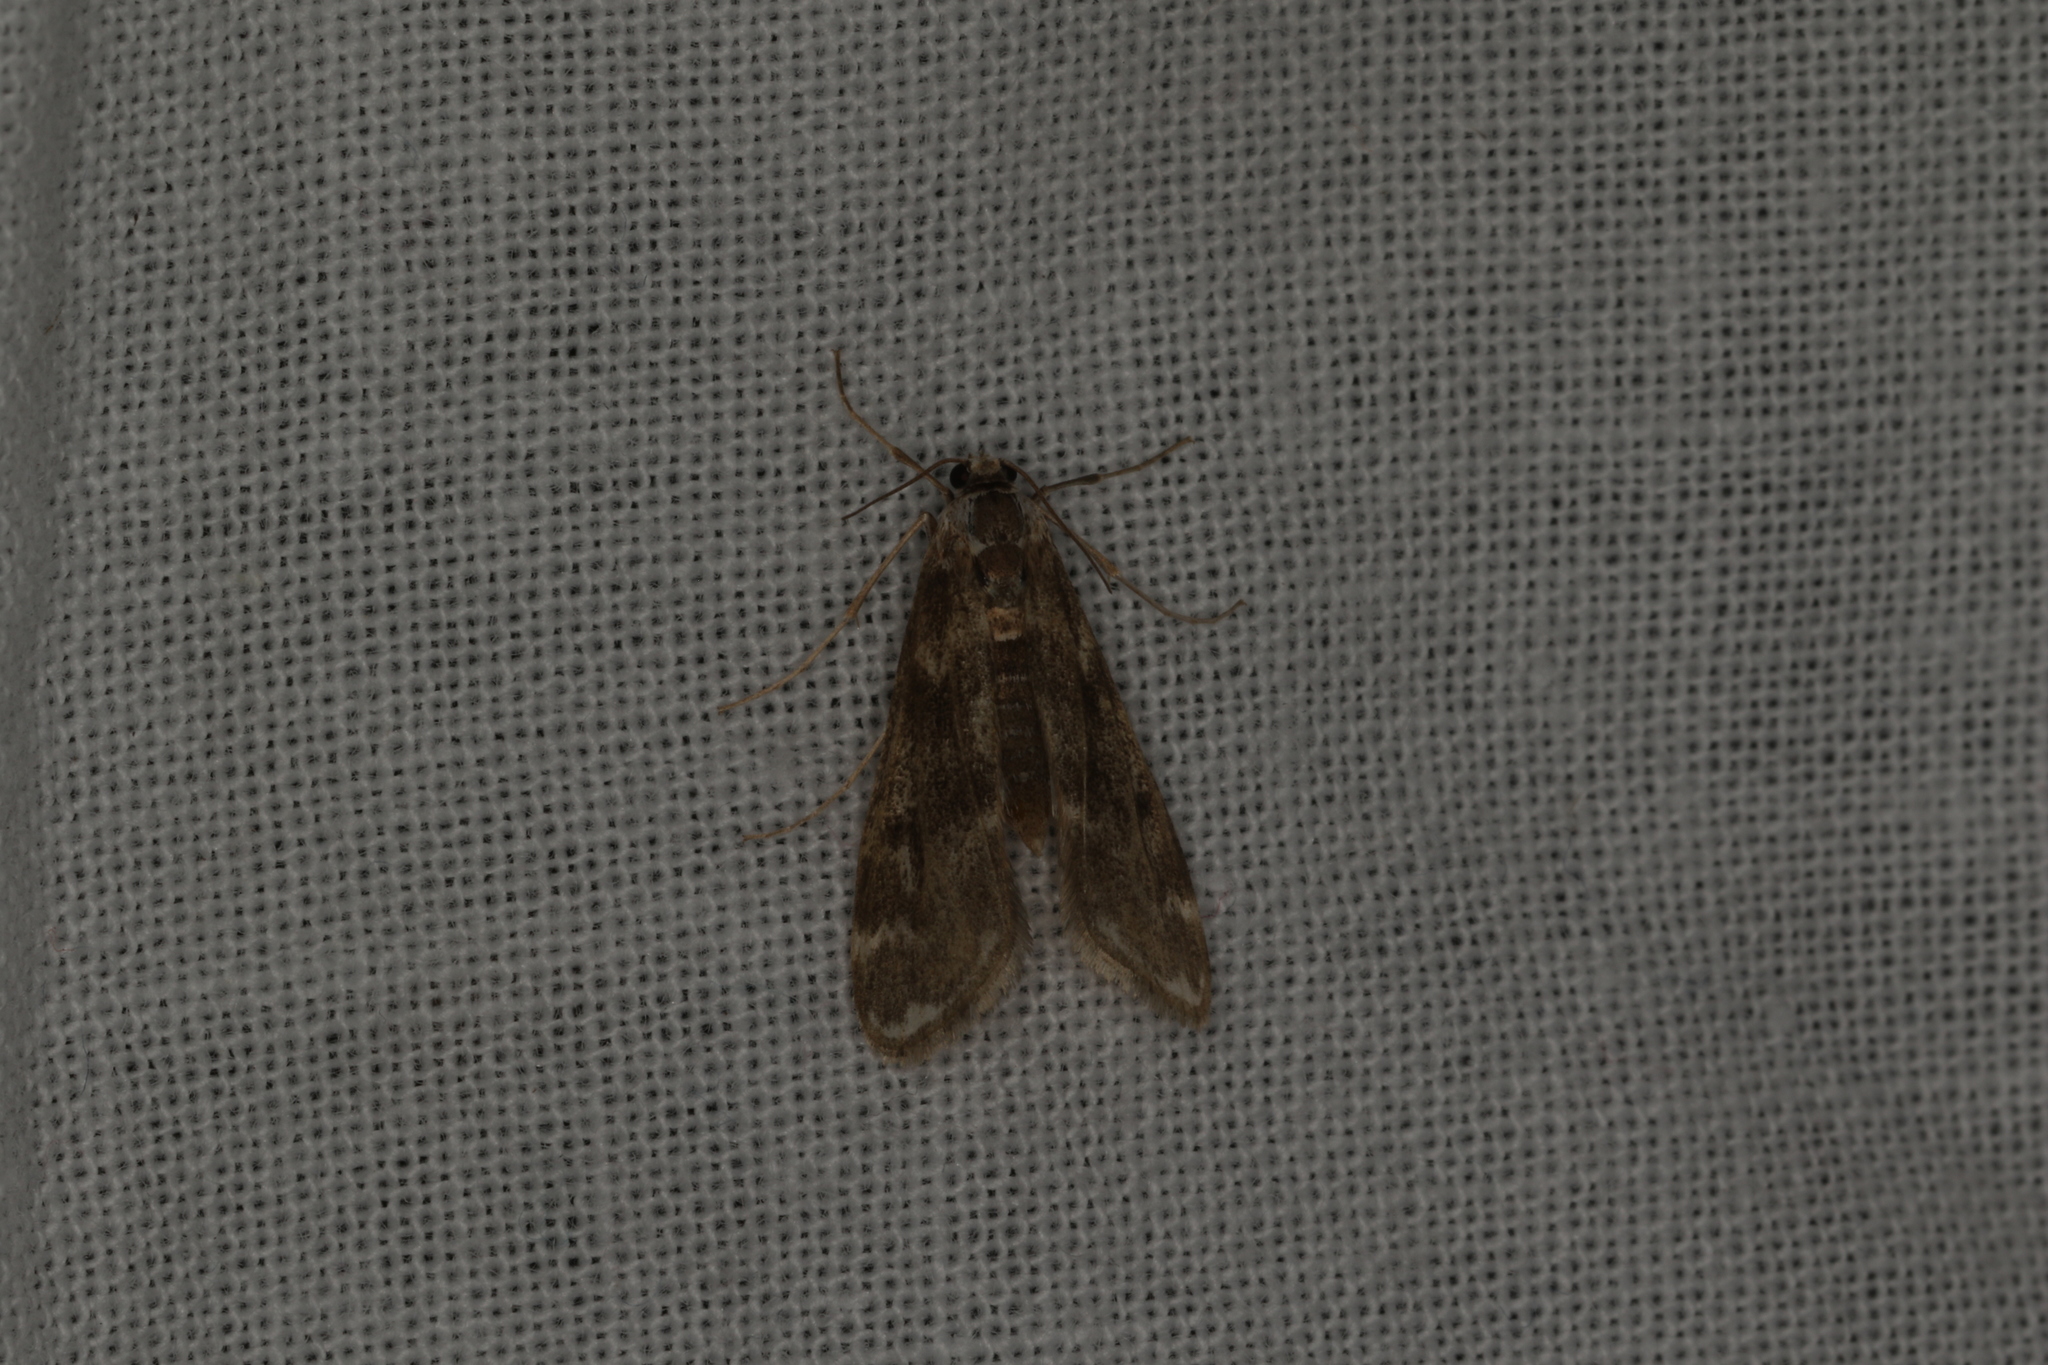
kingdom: Animalia
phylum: Arthropoda
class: Insecta
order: Lepidoptera
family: Crambidae
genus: Hygraula
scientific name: Hygraula nitens
